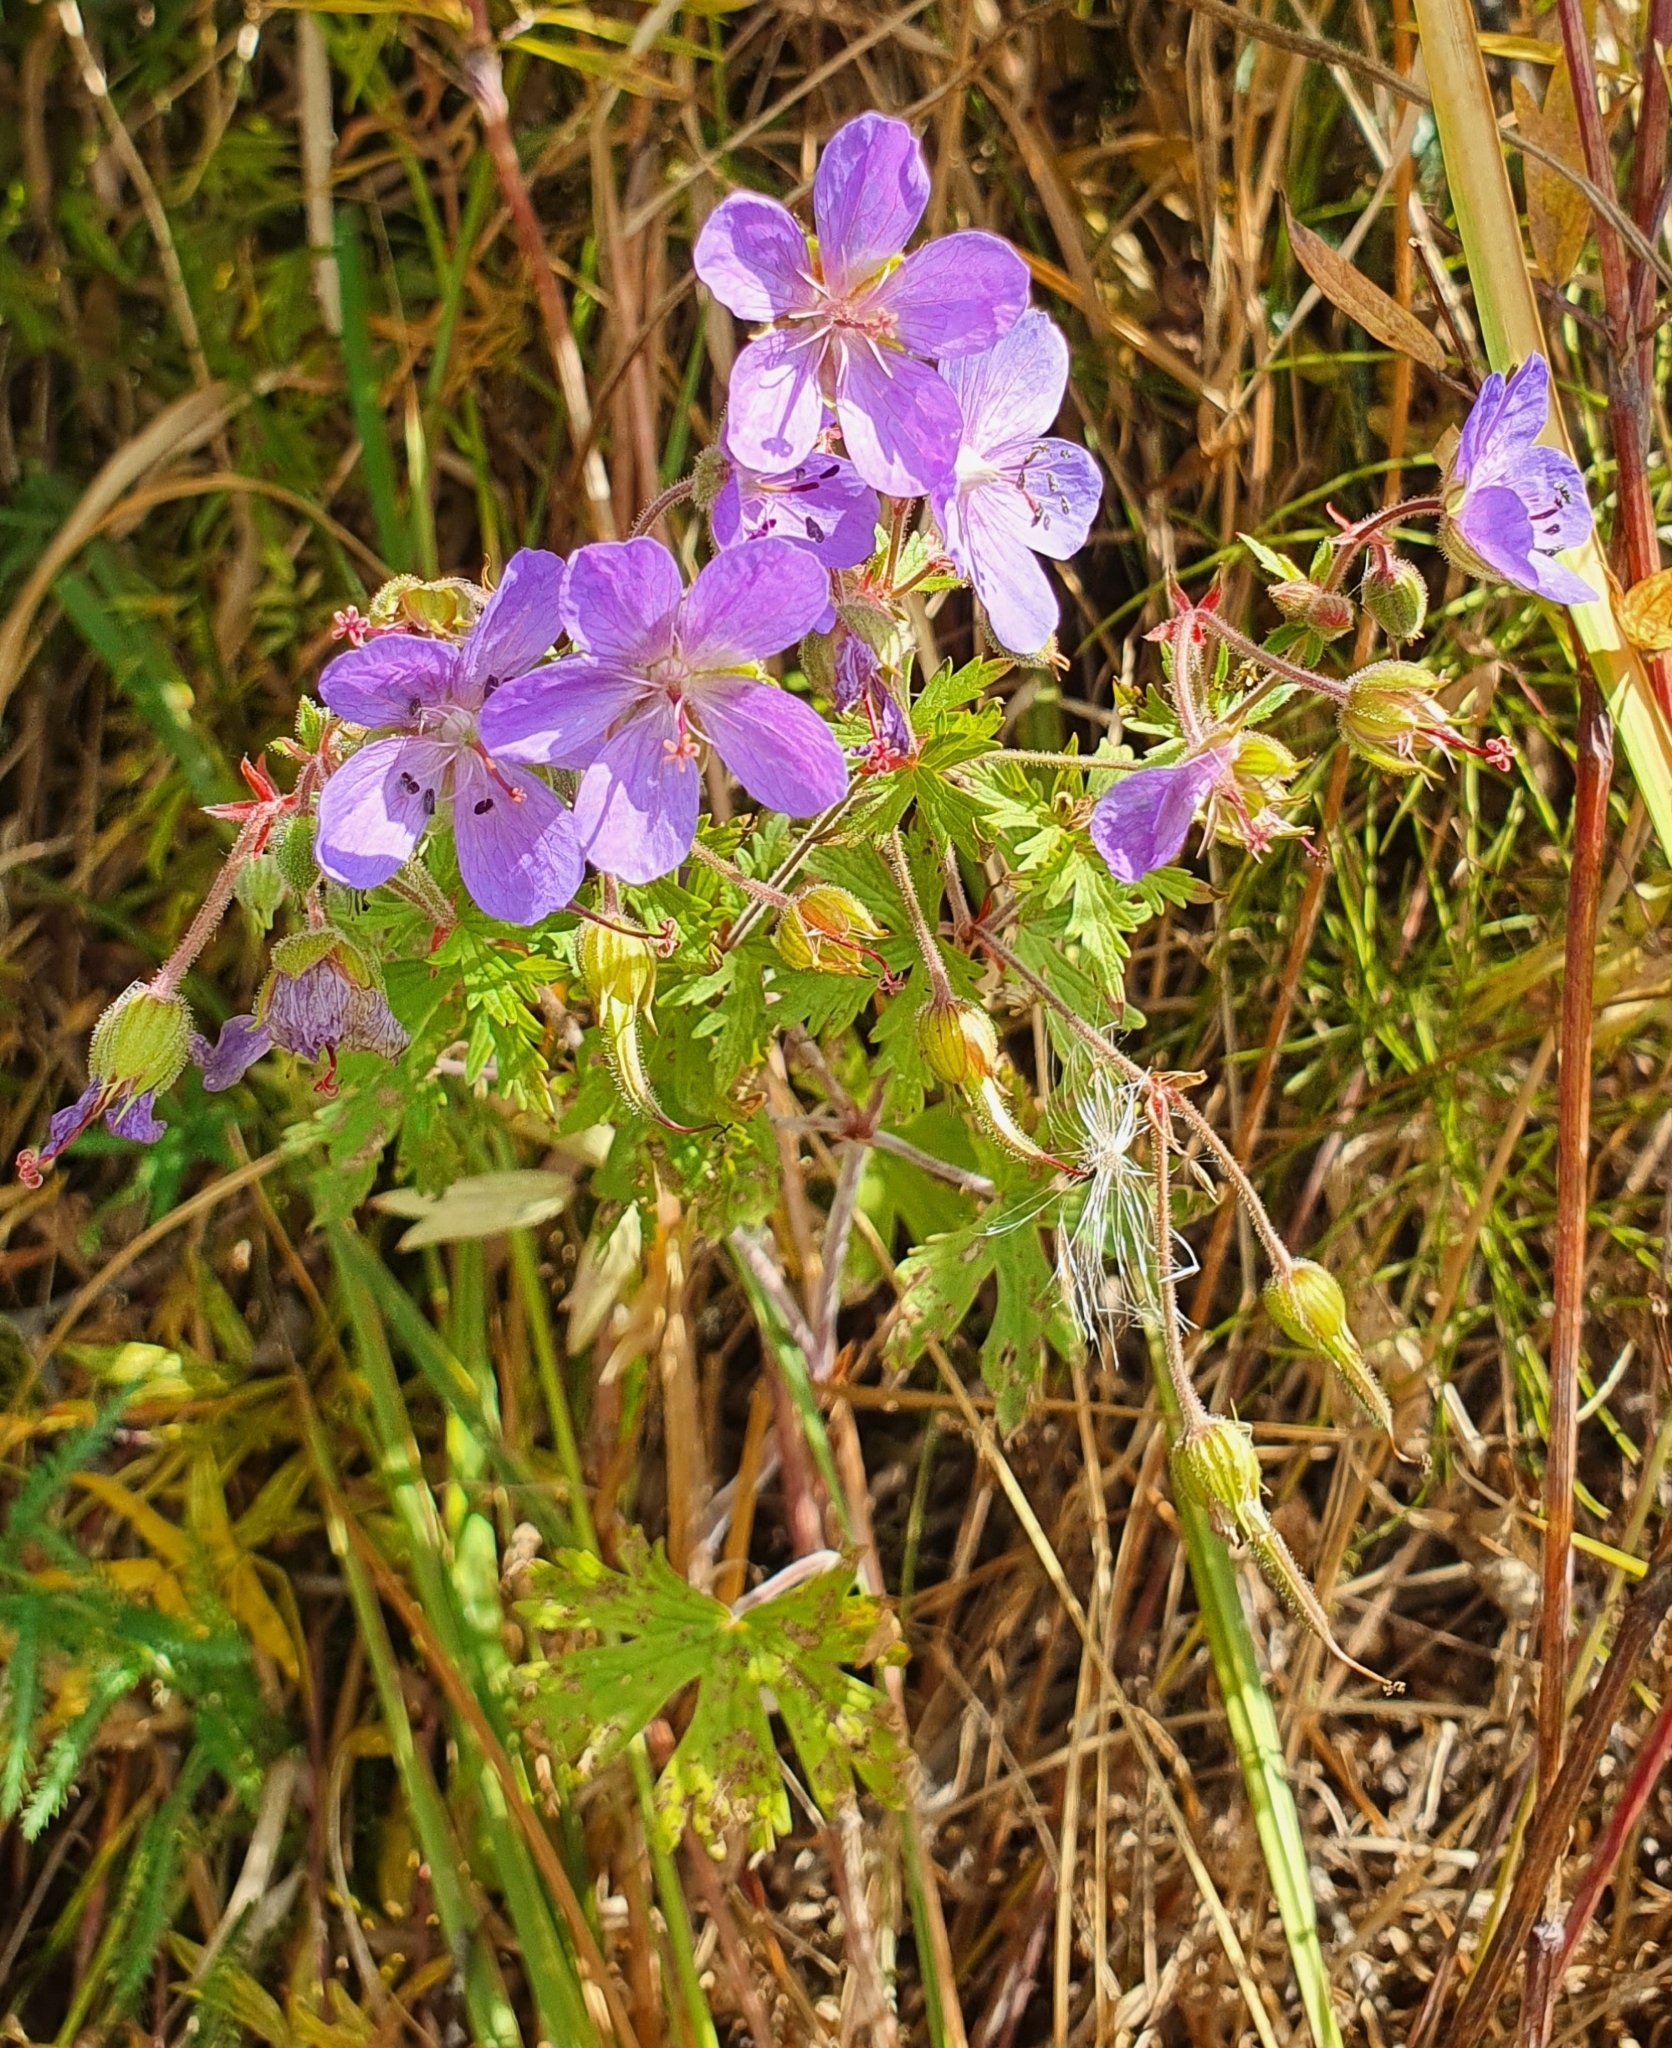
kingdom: Plantae
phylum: Tracheophyta
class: Magnoliopsida
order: Geraniales
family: Geraniaceae
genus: Geranium
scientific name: Geranium pratense
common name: Meadow crane's-bill
